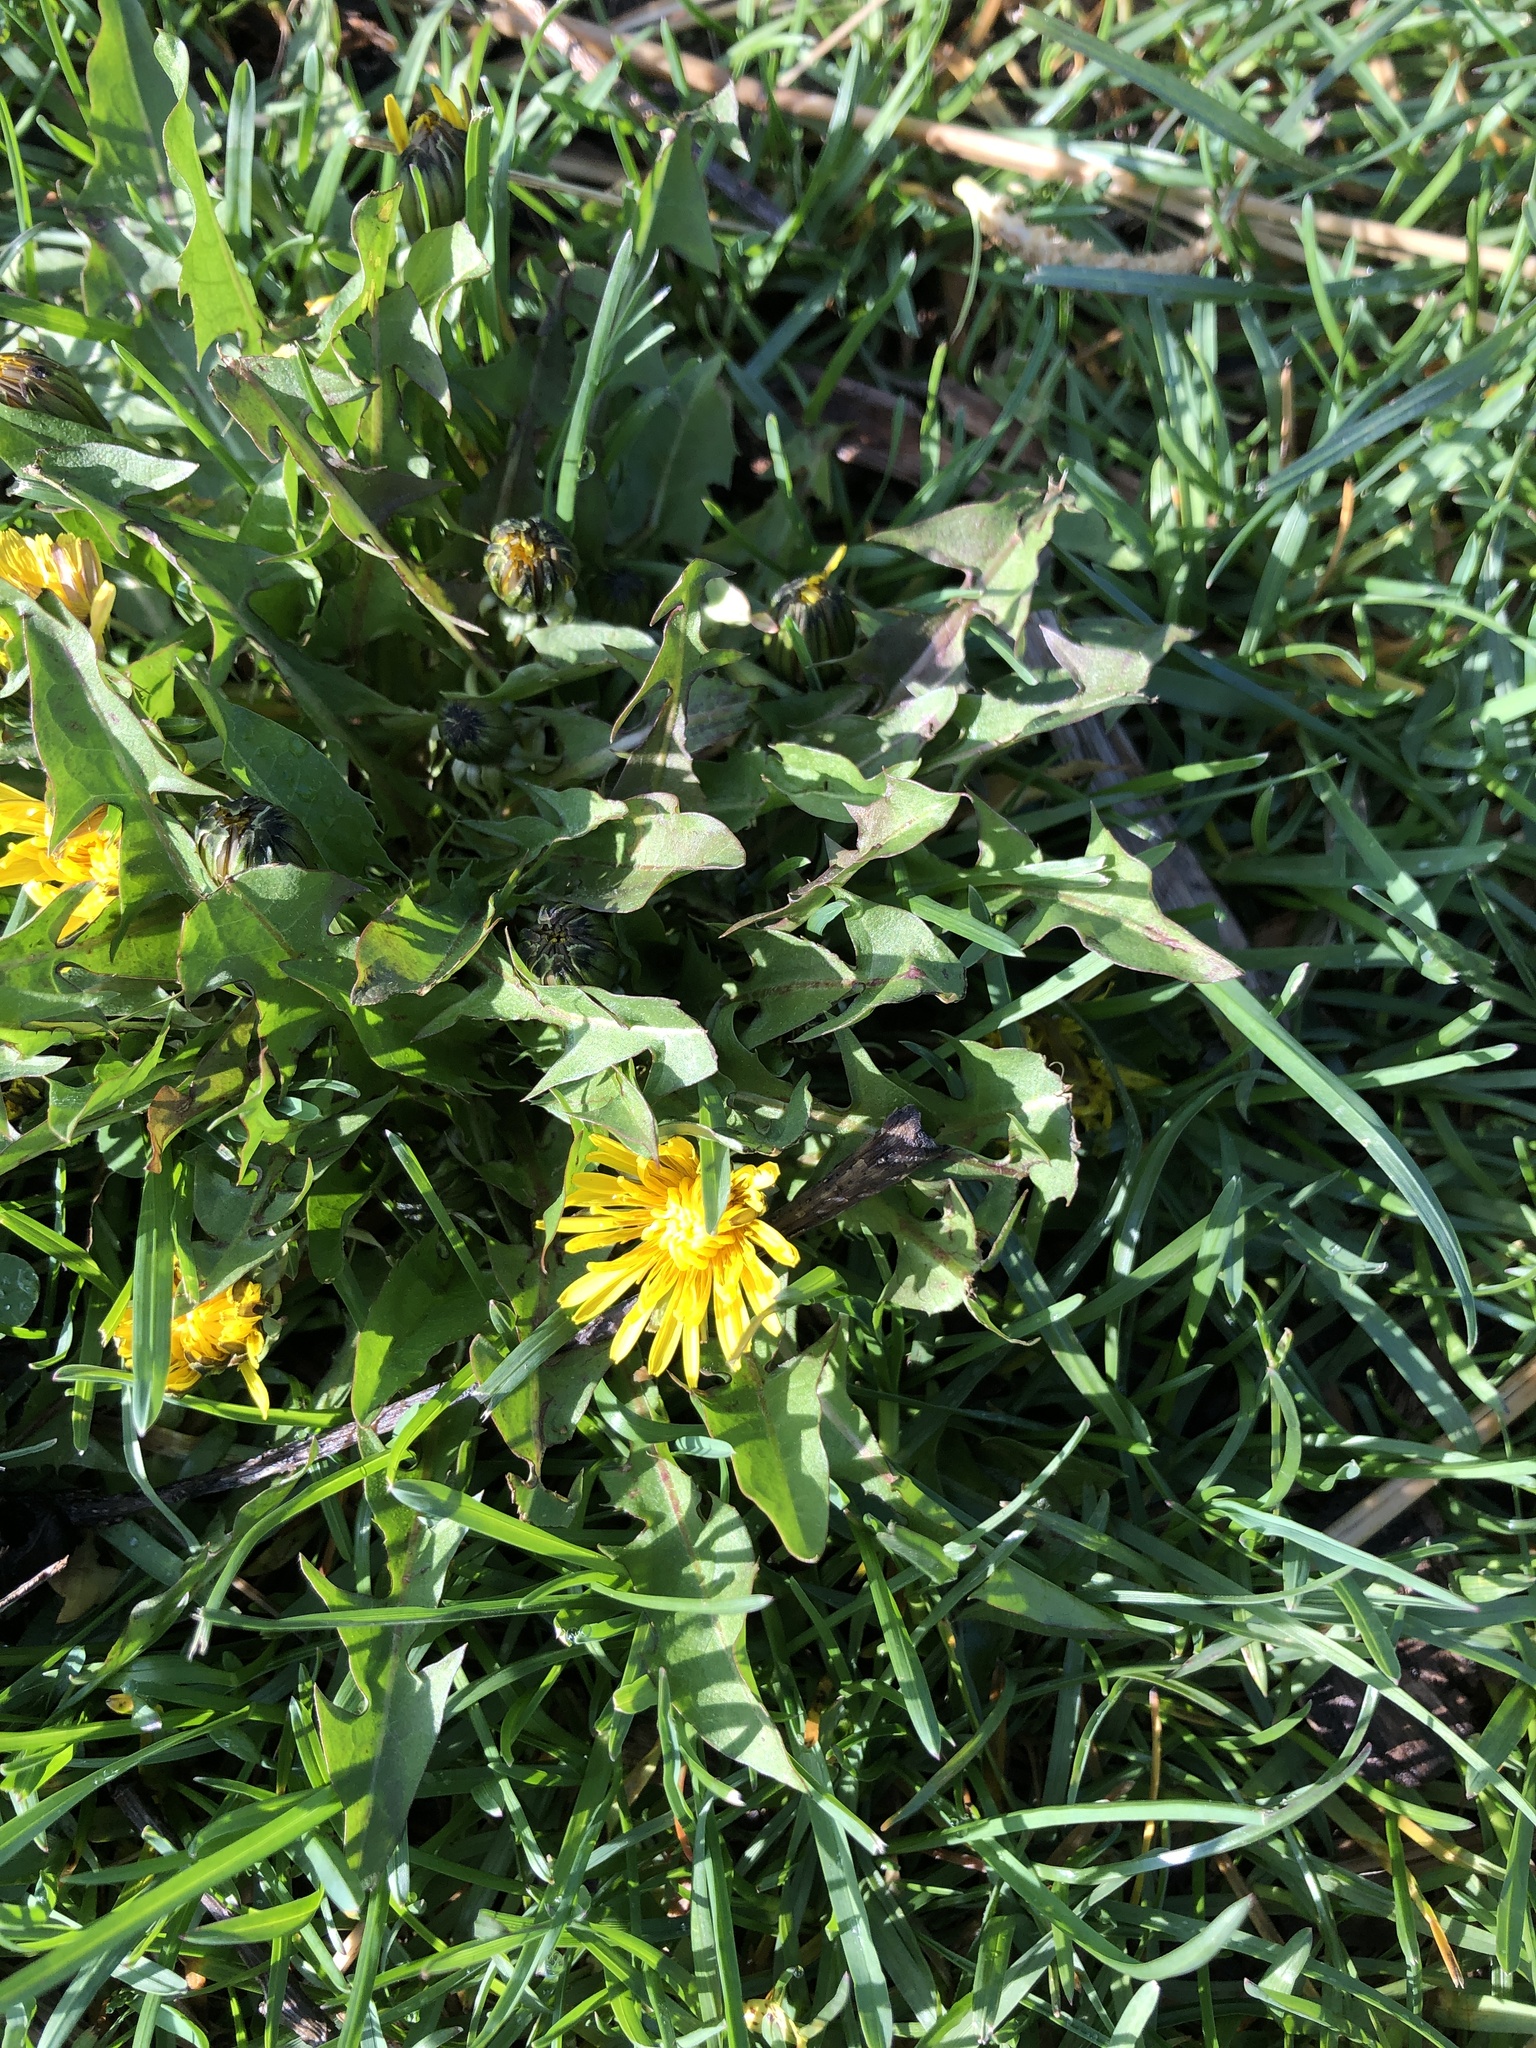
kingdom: Plantae
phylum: Tracheophyta
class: Magnoliopsida
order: Asterales
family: Asteraceae
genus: Taraxacum
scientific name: Taraxacum officinale
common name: Common dandelion
